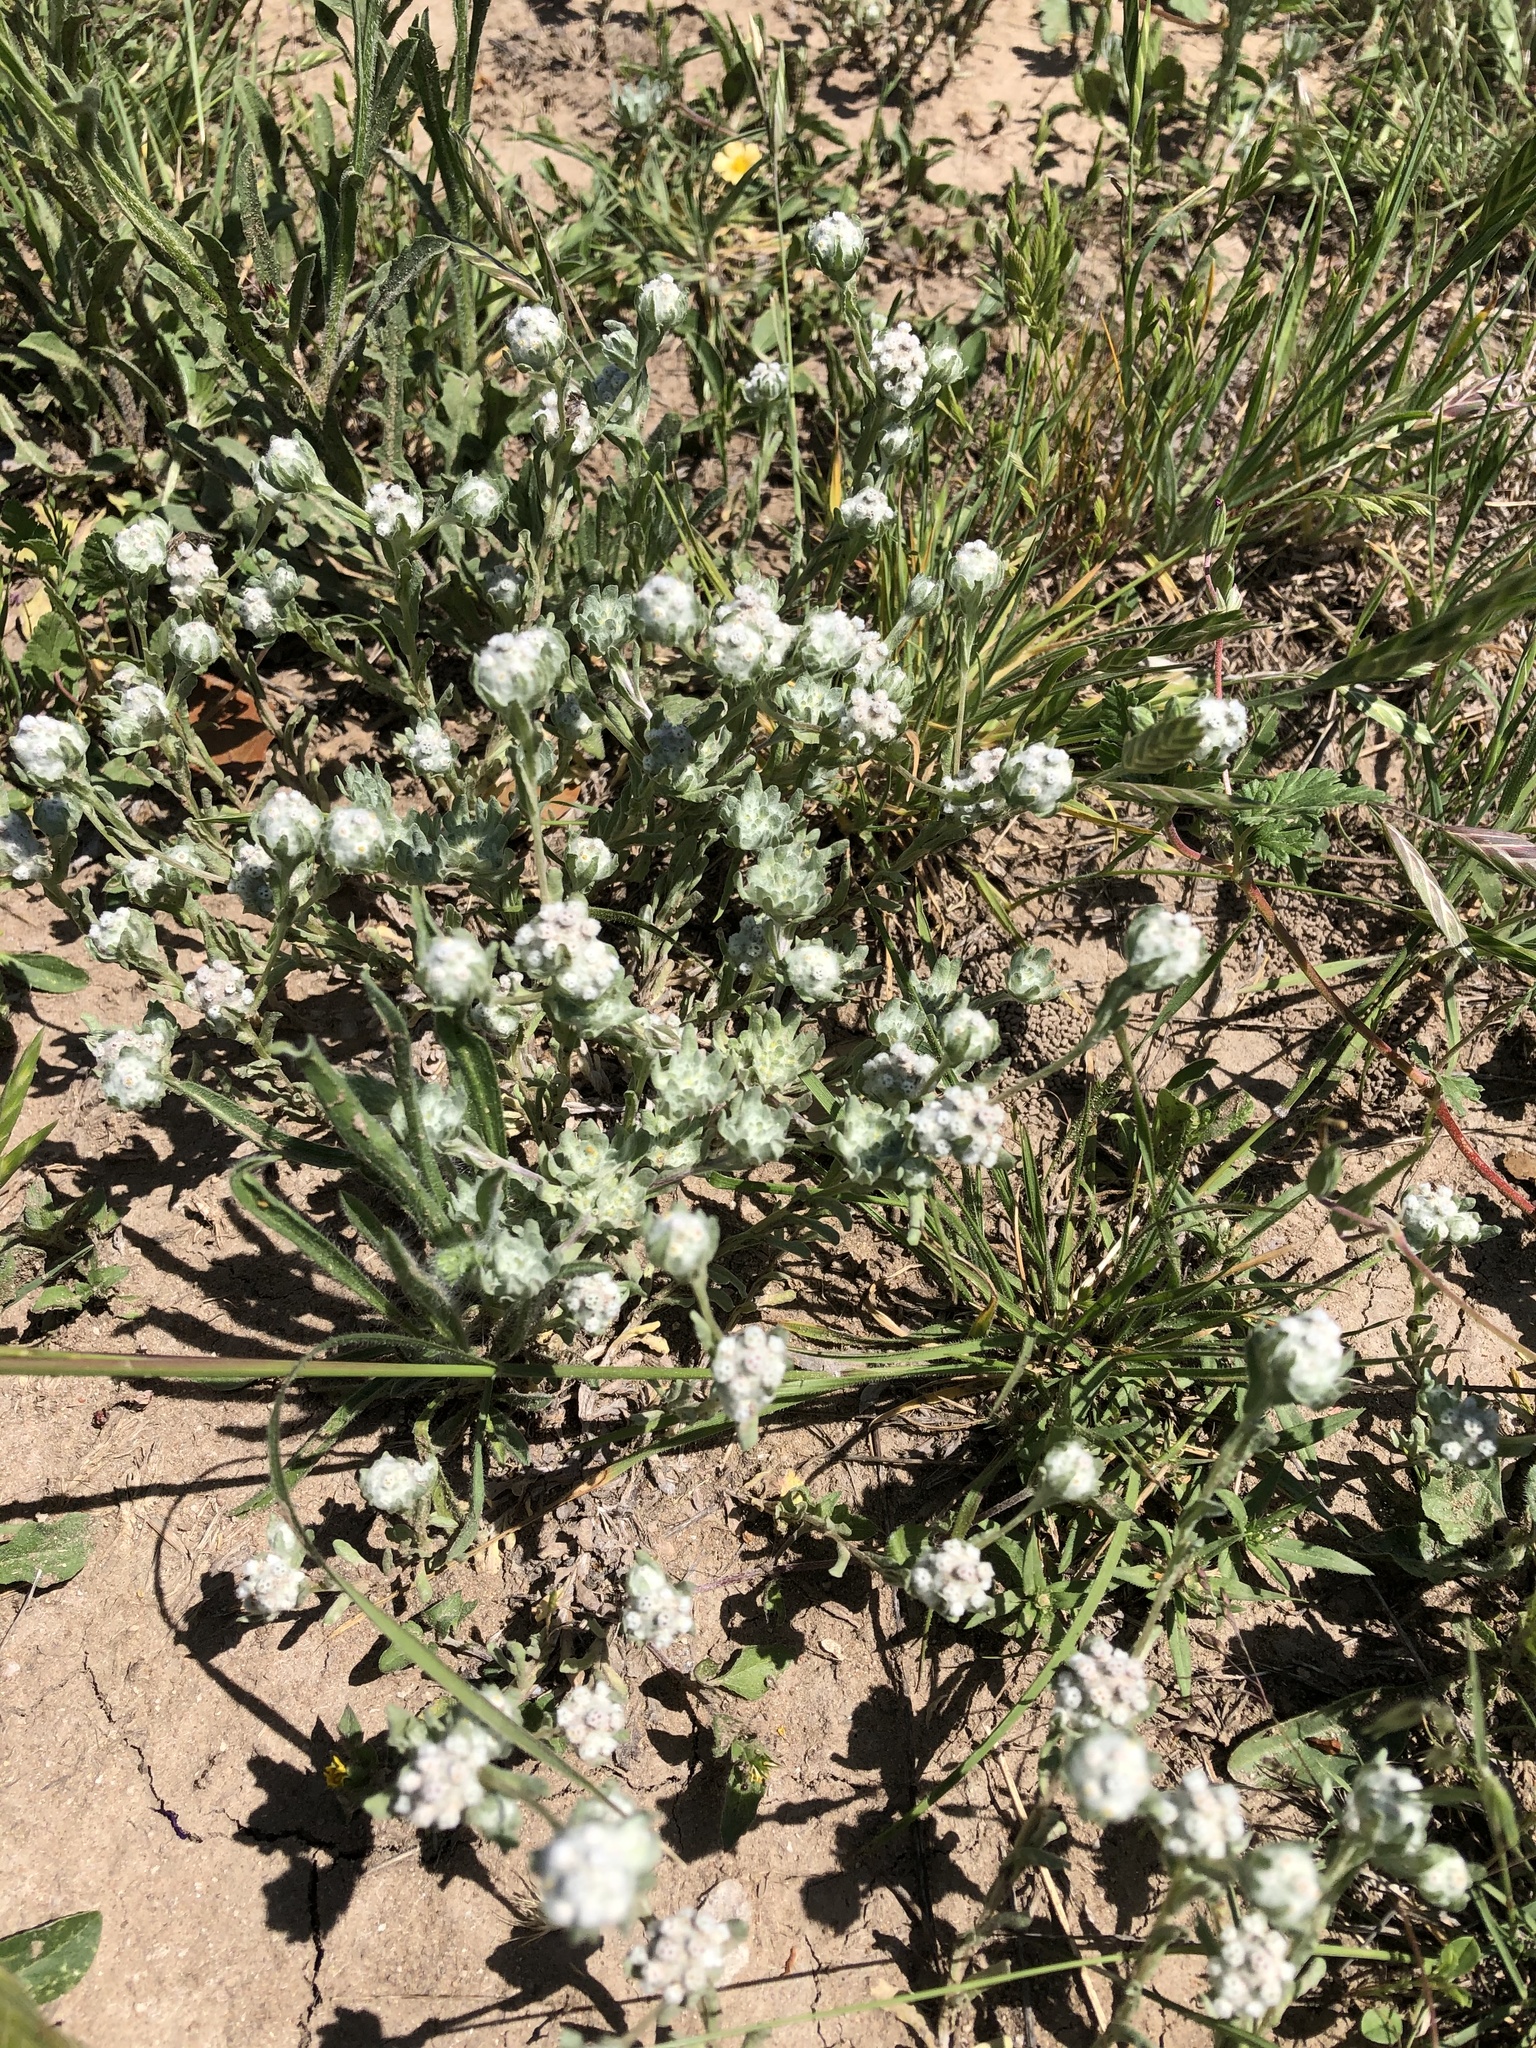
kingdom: Plantae
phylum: Tracheophyta
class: Magnoliopsida
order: Asterales
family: Asteraceae
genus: Diaperia
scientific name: Diaperia verna
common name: Many-stem rabbit-tobacco
